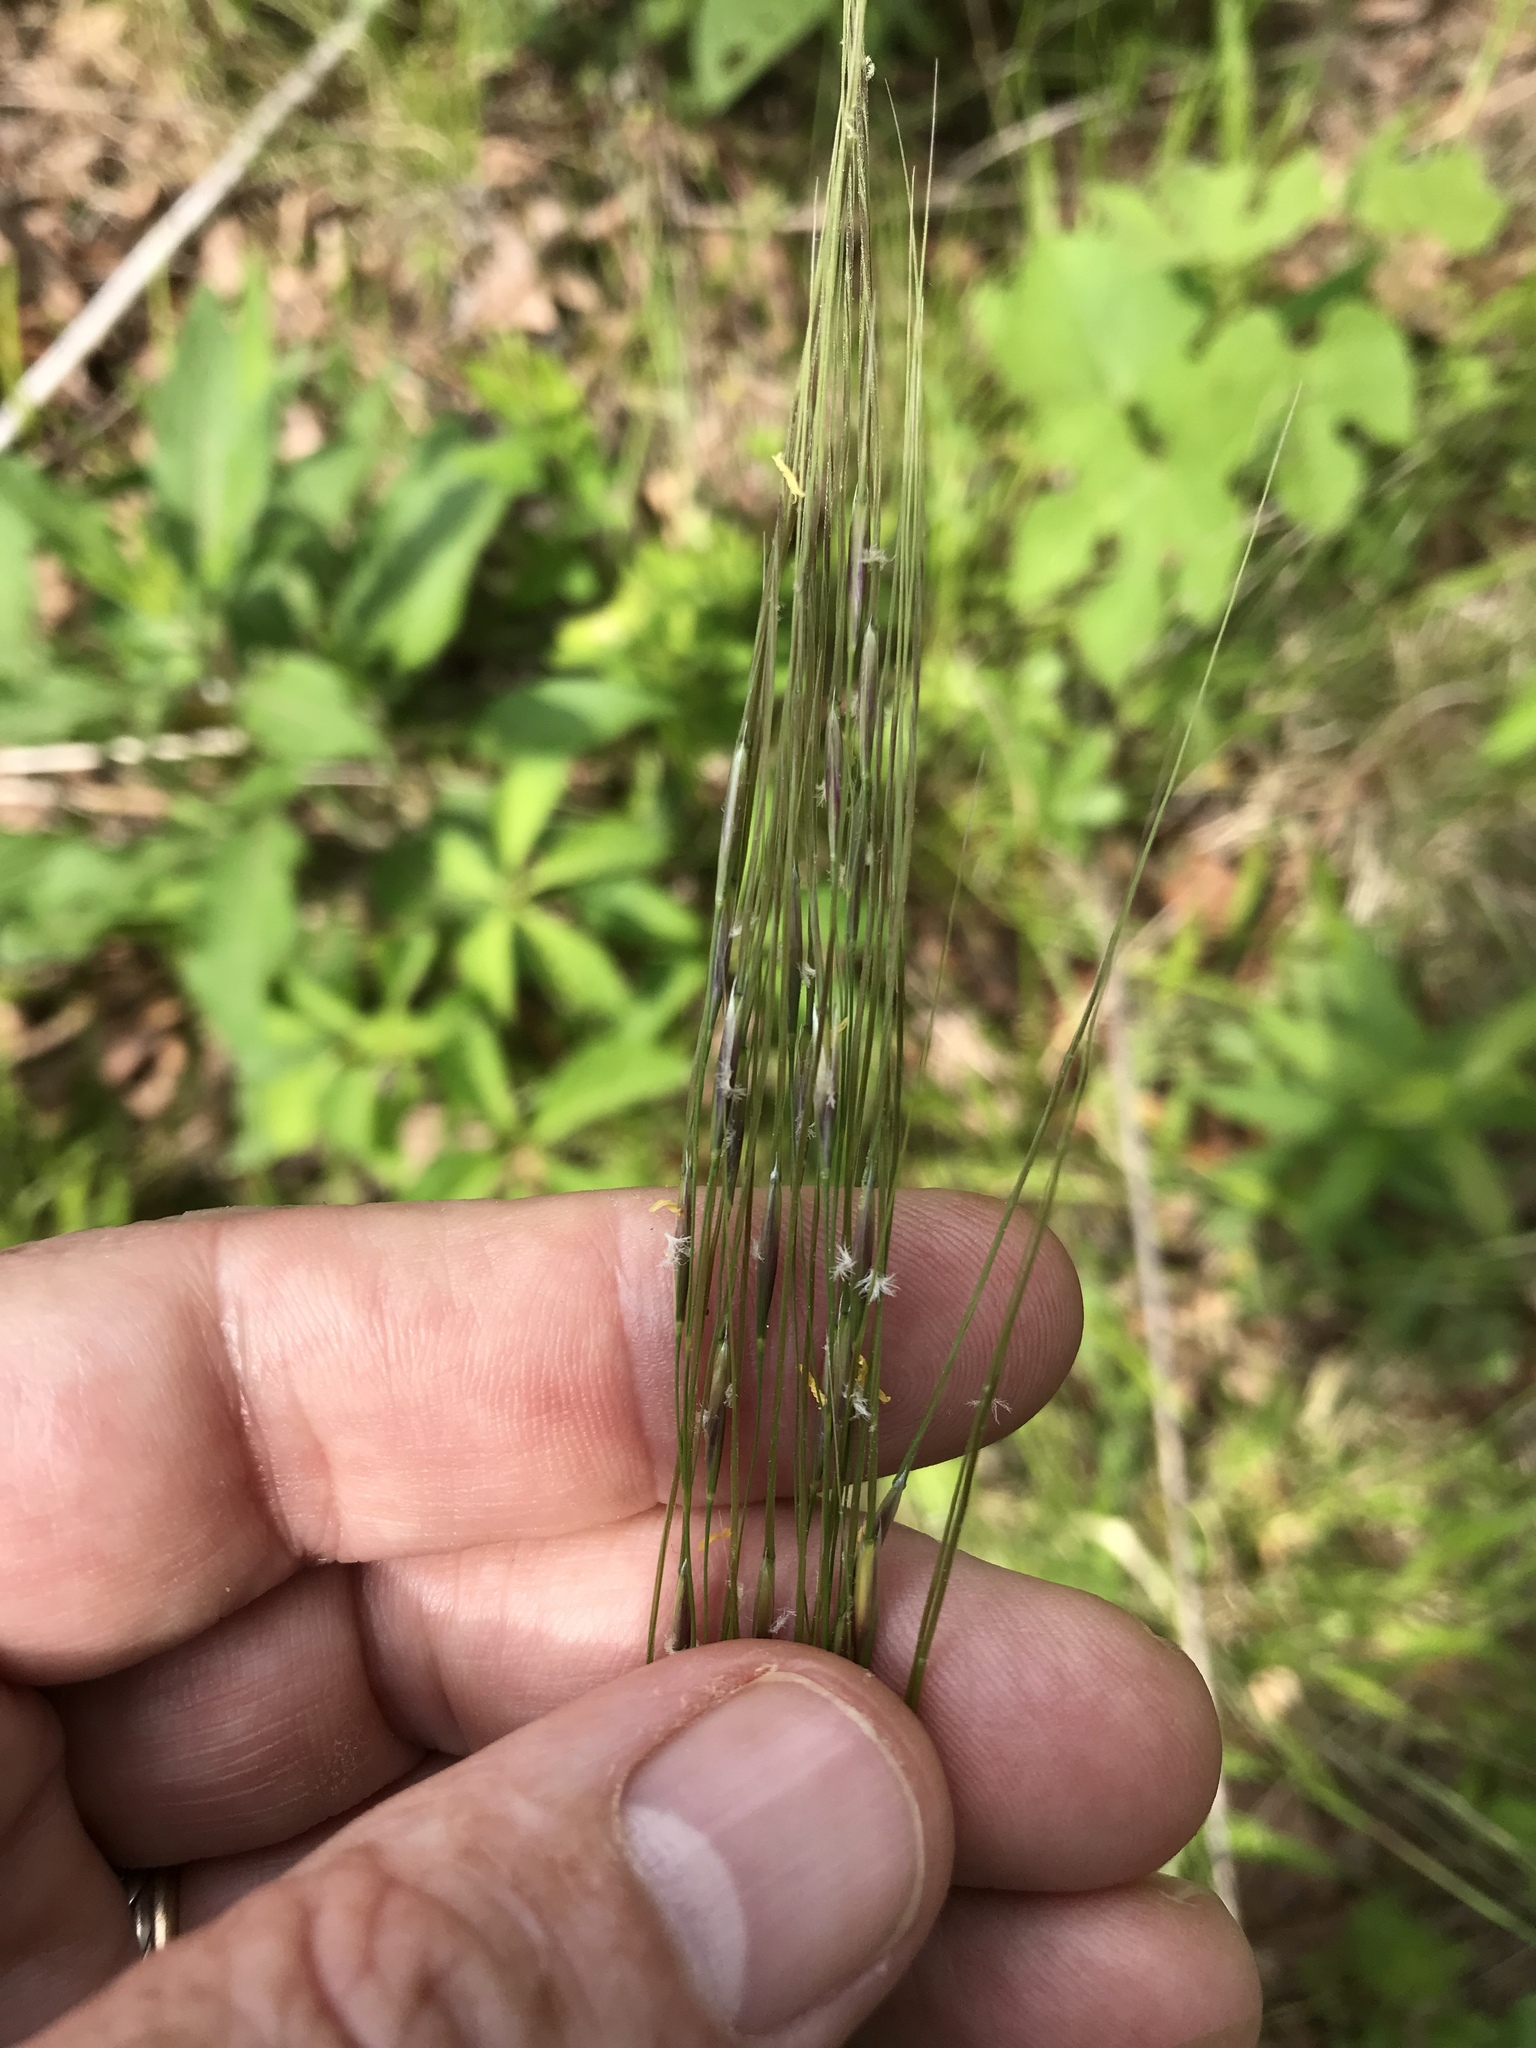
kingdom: Plantae
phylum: Tracheophyta
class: Liliopsida
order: Poales
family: Poaceae
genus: Piptochaetium
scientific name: Piptochaetium avenaceum
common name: Black bunchgrass
